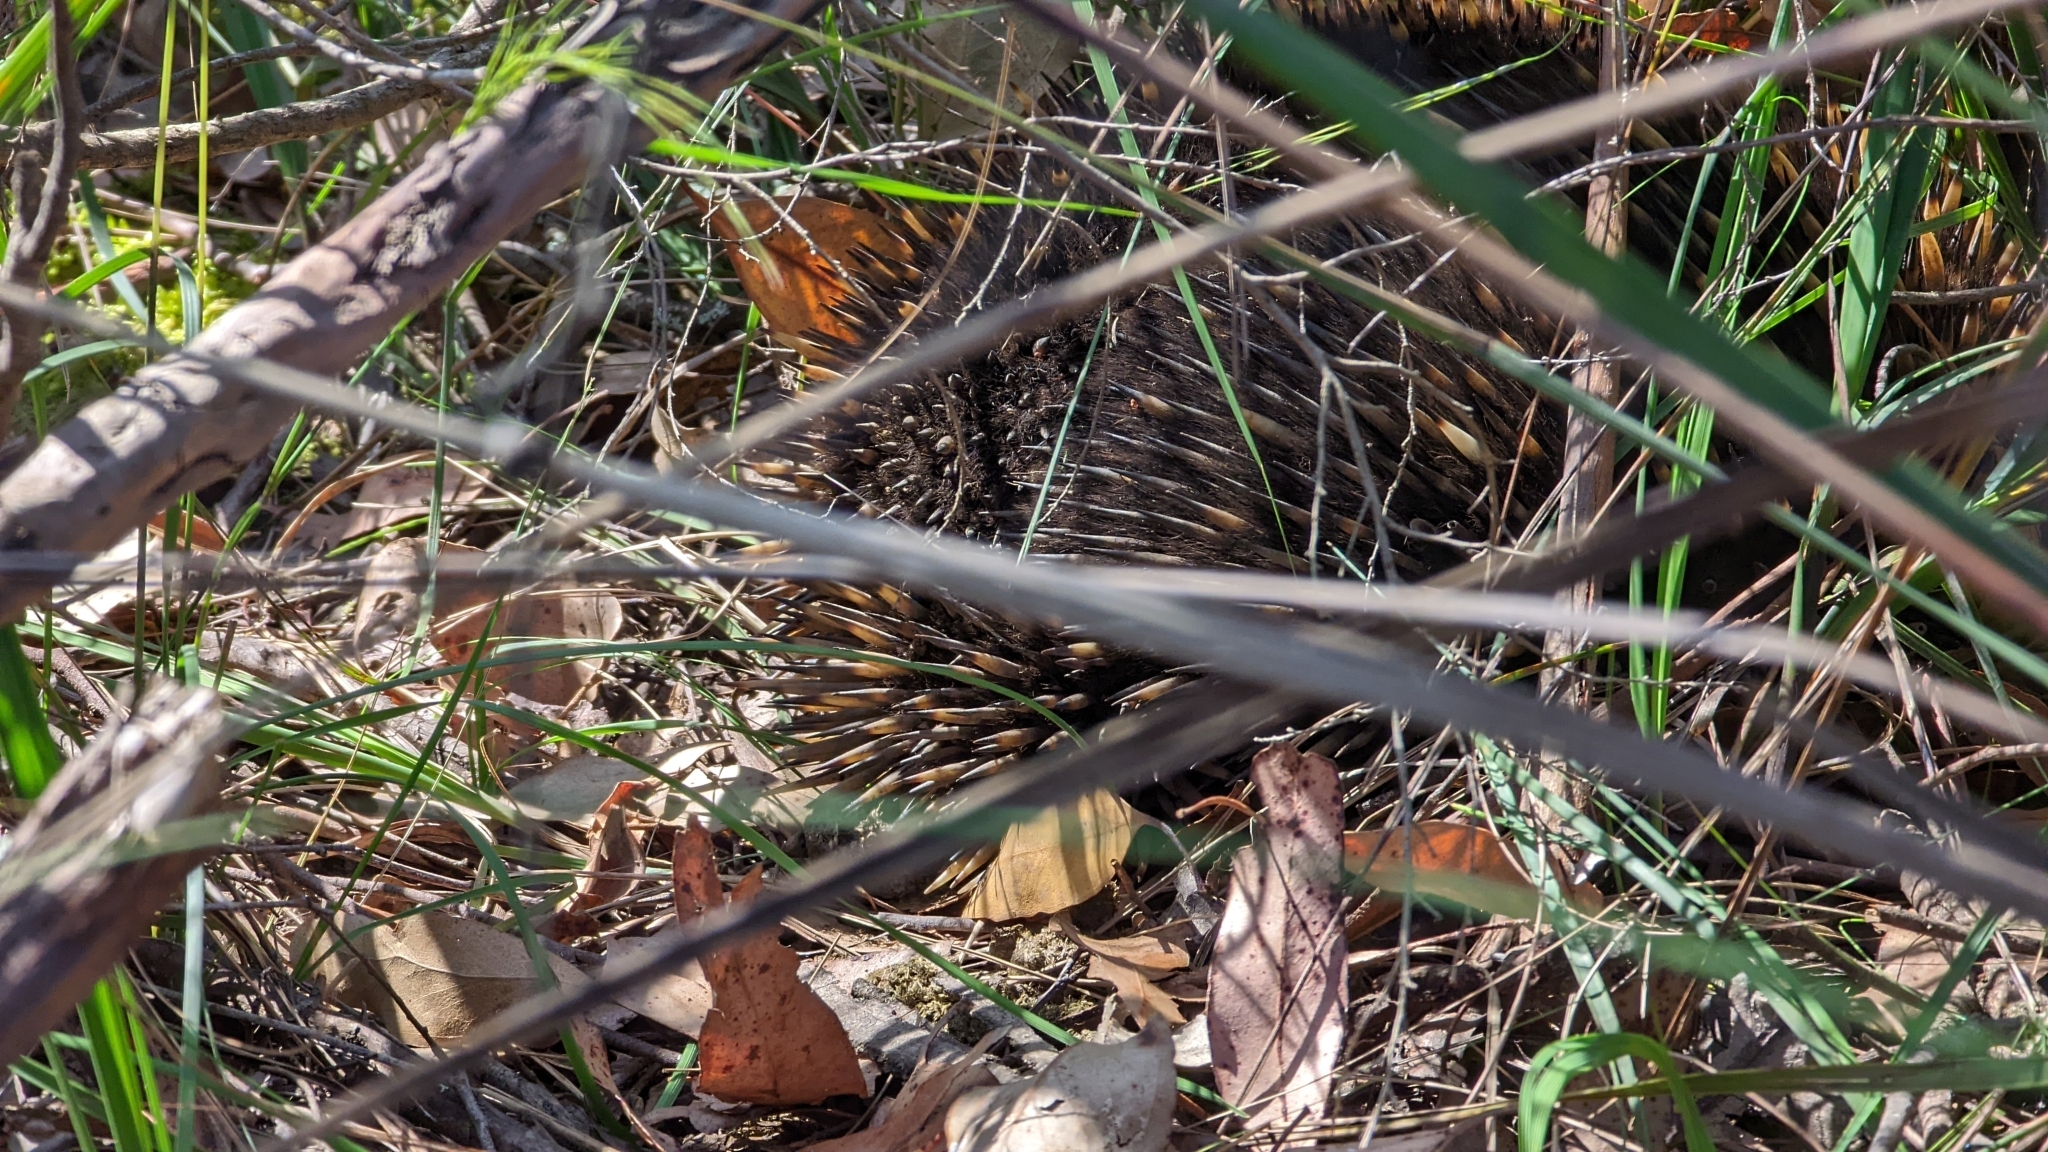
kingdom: Animalia
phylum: Chordata
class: Mammalia
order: Monotremata
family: Tachyglossidae
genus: Tachyglossus
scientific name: Tachyglossus aculeatus
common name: Short-beaked echidna
